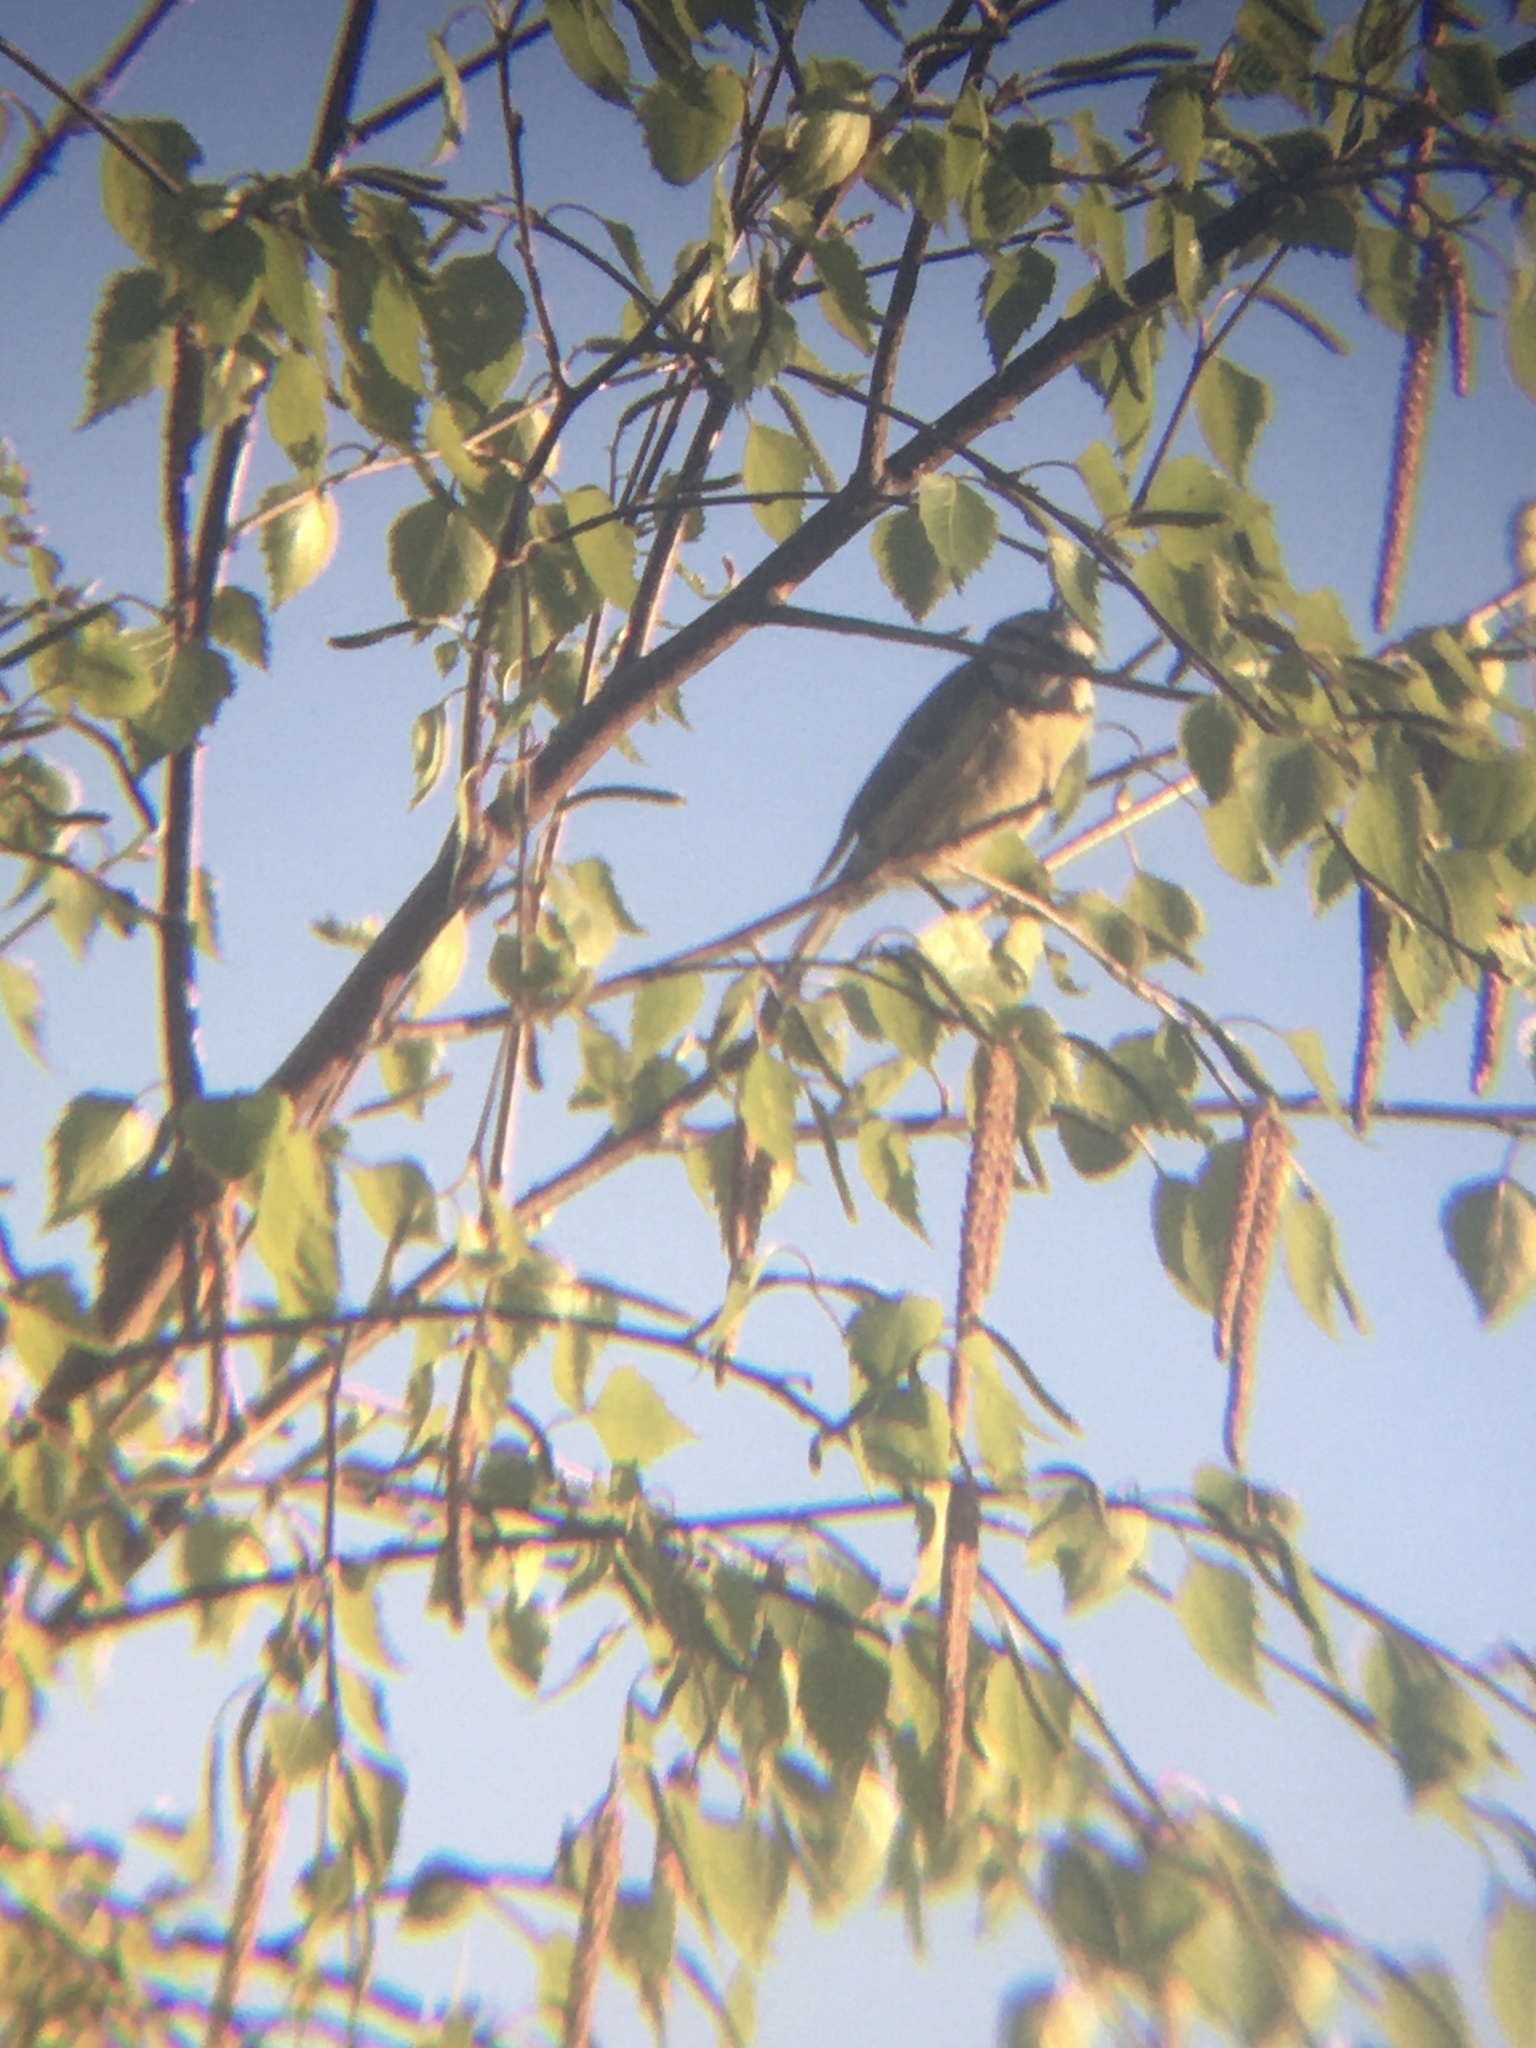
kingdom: Animalia
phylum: Chordata
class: Aves
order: Passeriformes
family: Paridae
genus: Cyanistes
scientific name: Cyanistes caeruleus
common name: Eurasian blue tit
